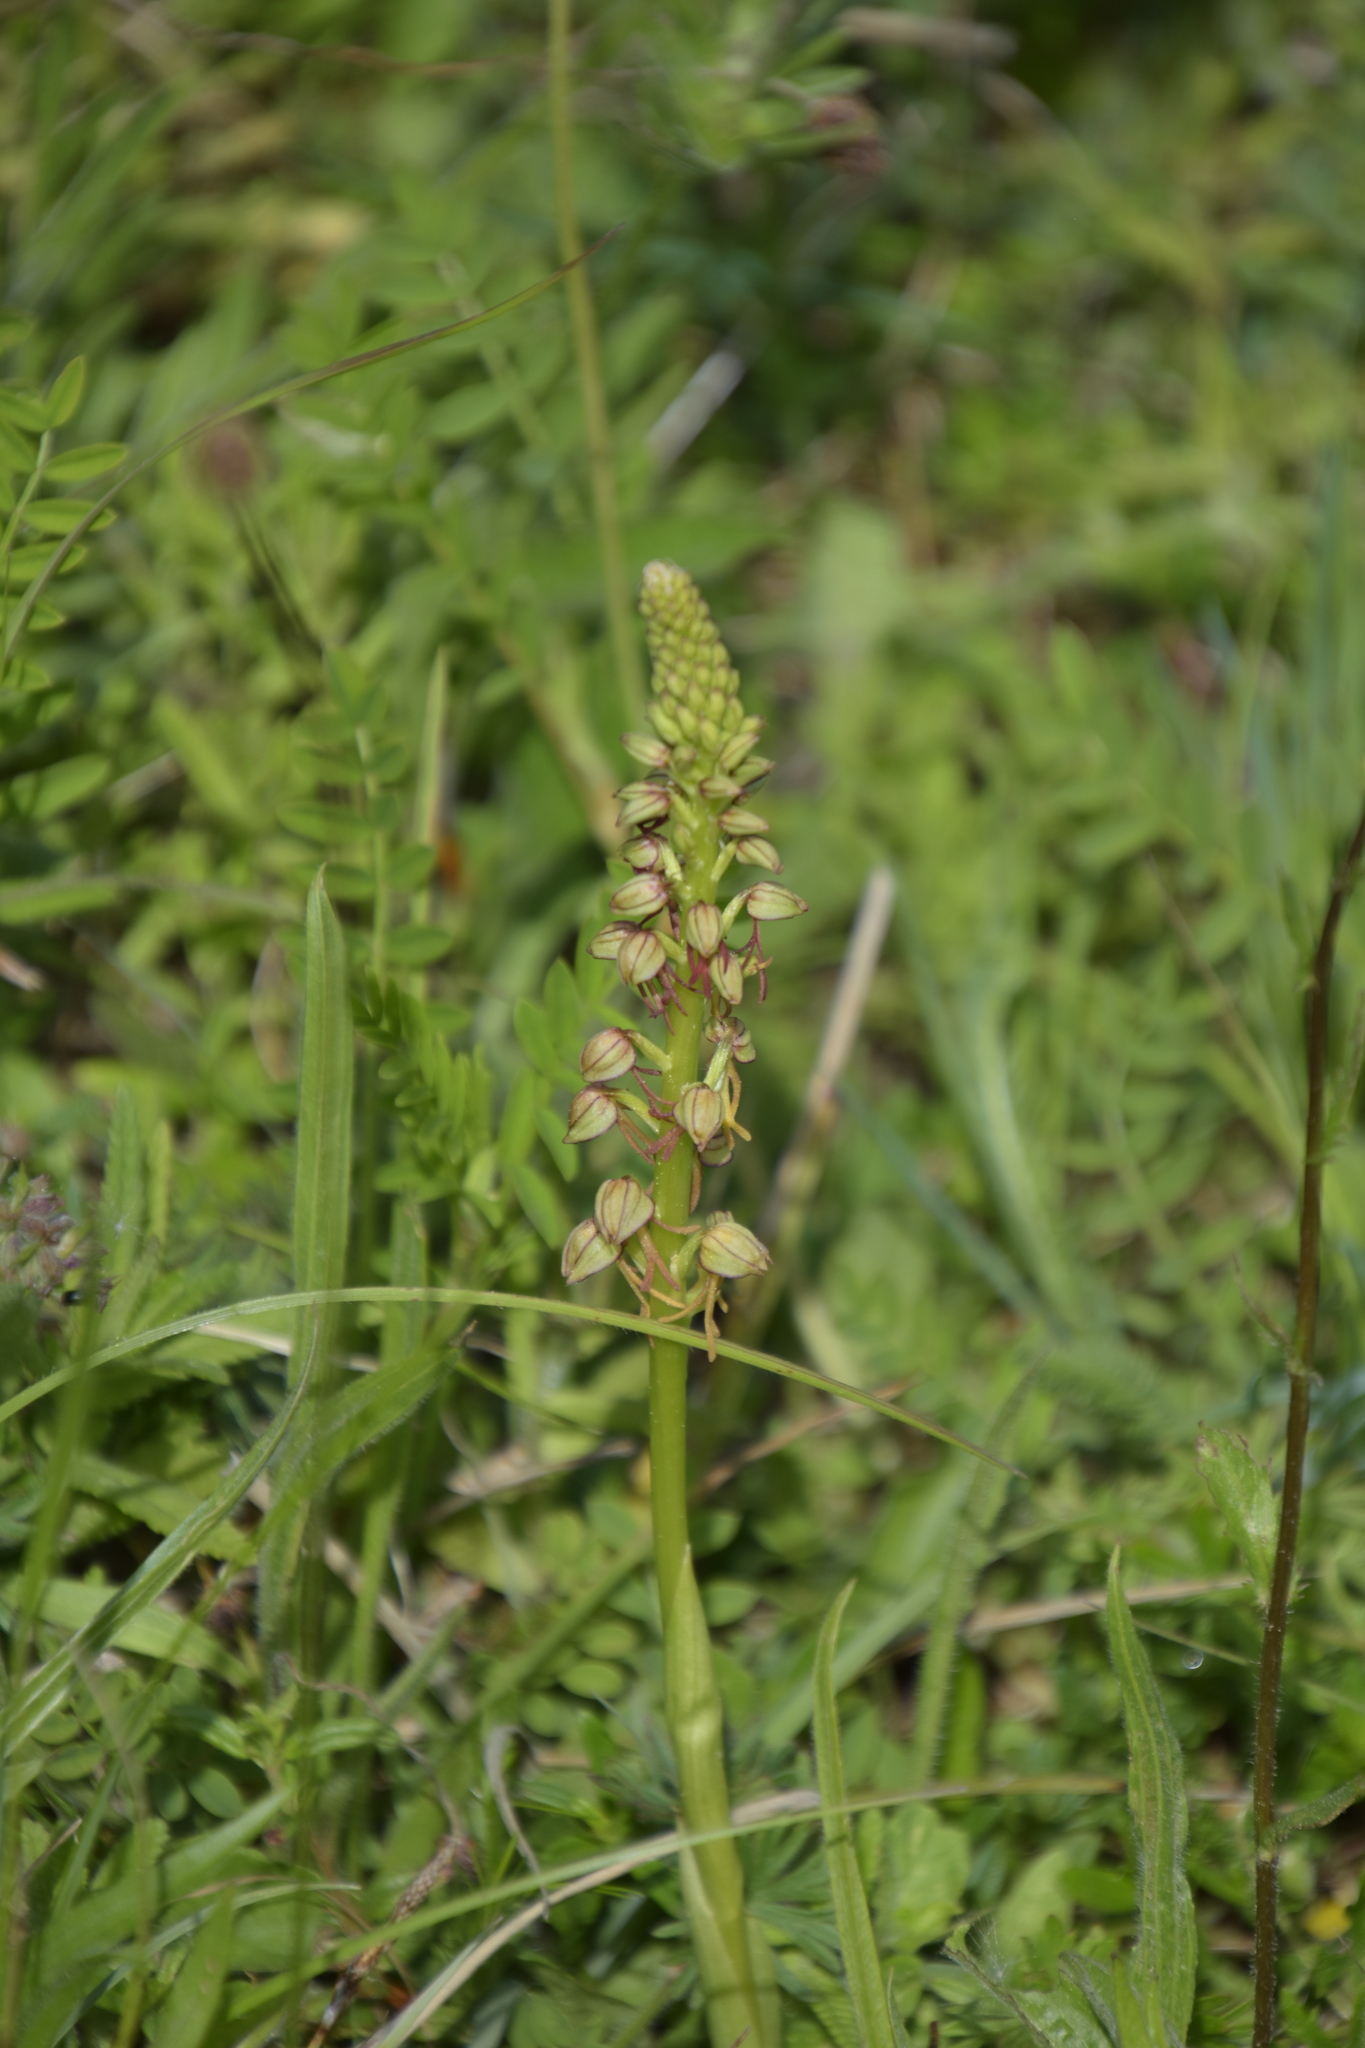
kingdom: Plantae
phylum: Tracheophyta
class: Liliopsida
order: Asparagales
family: Orchidaceae
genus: Orchis
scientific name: Orchis anthropophora
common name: Man orchid
